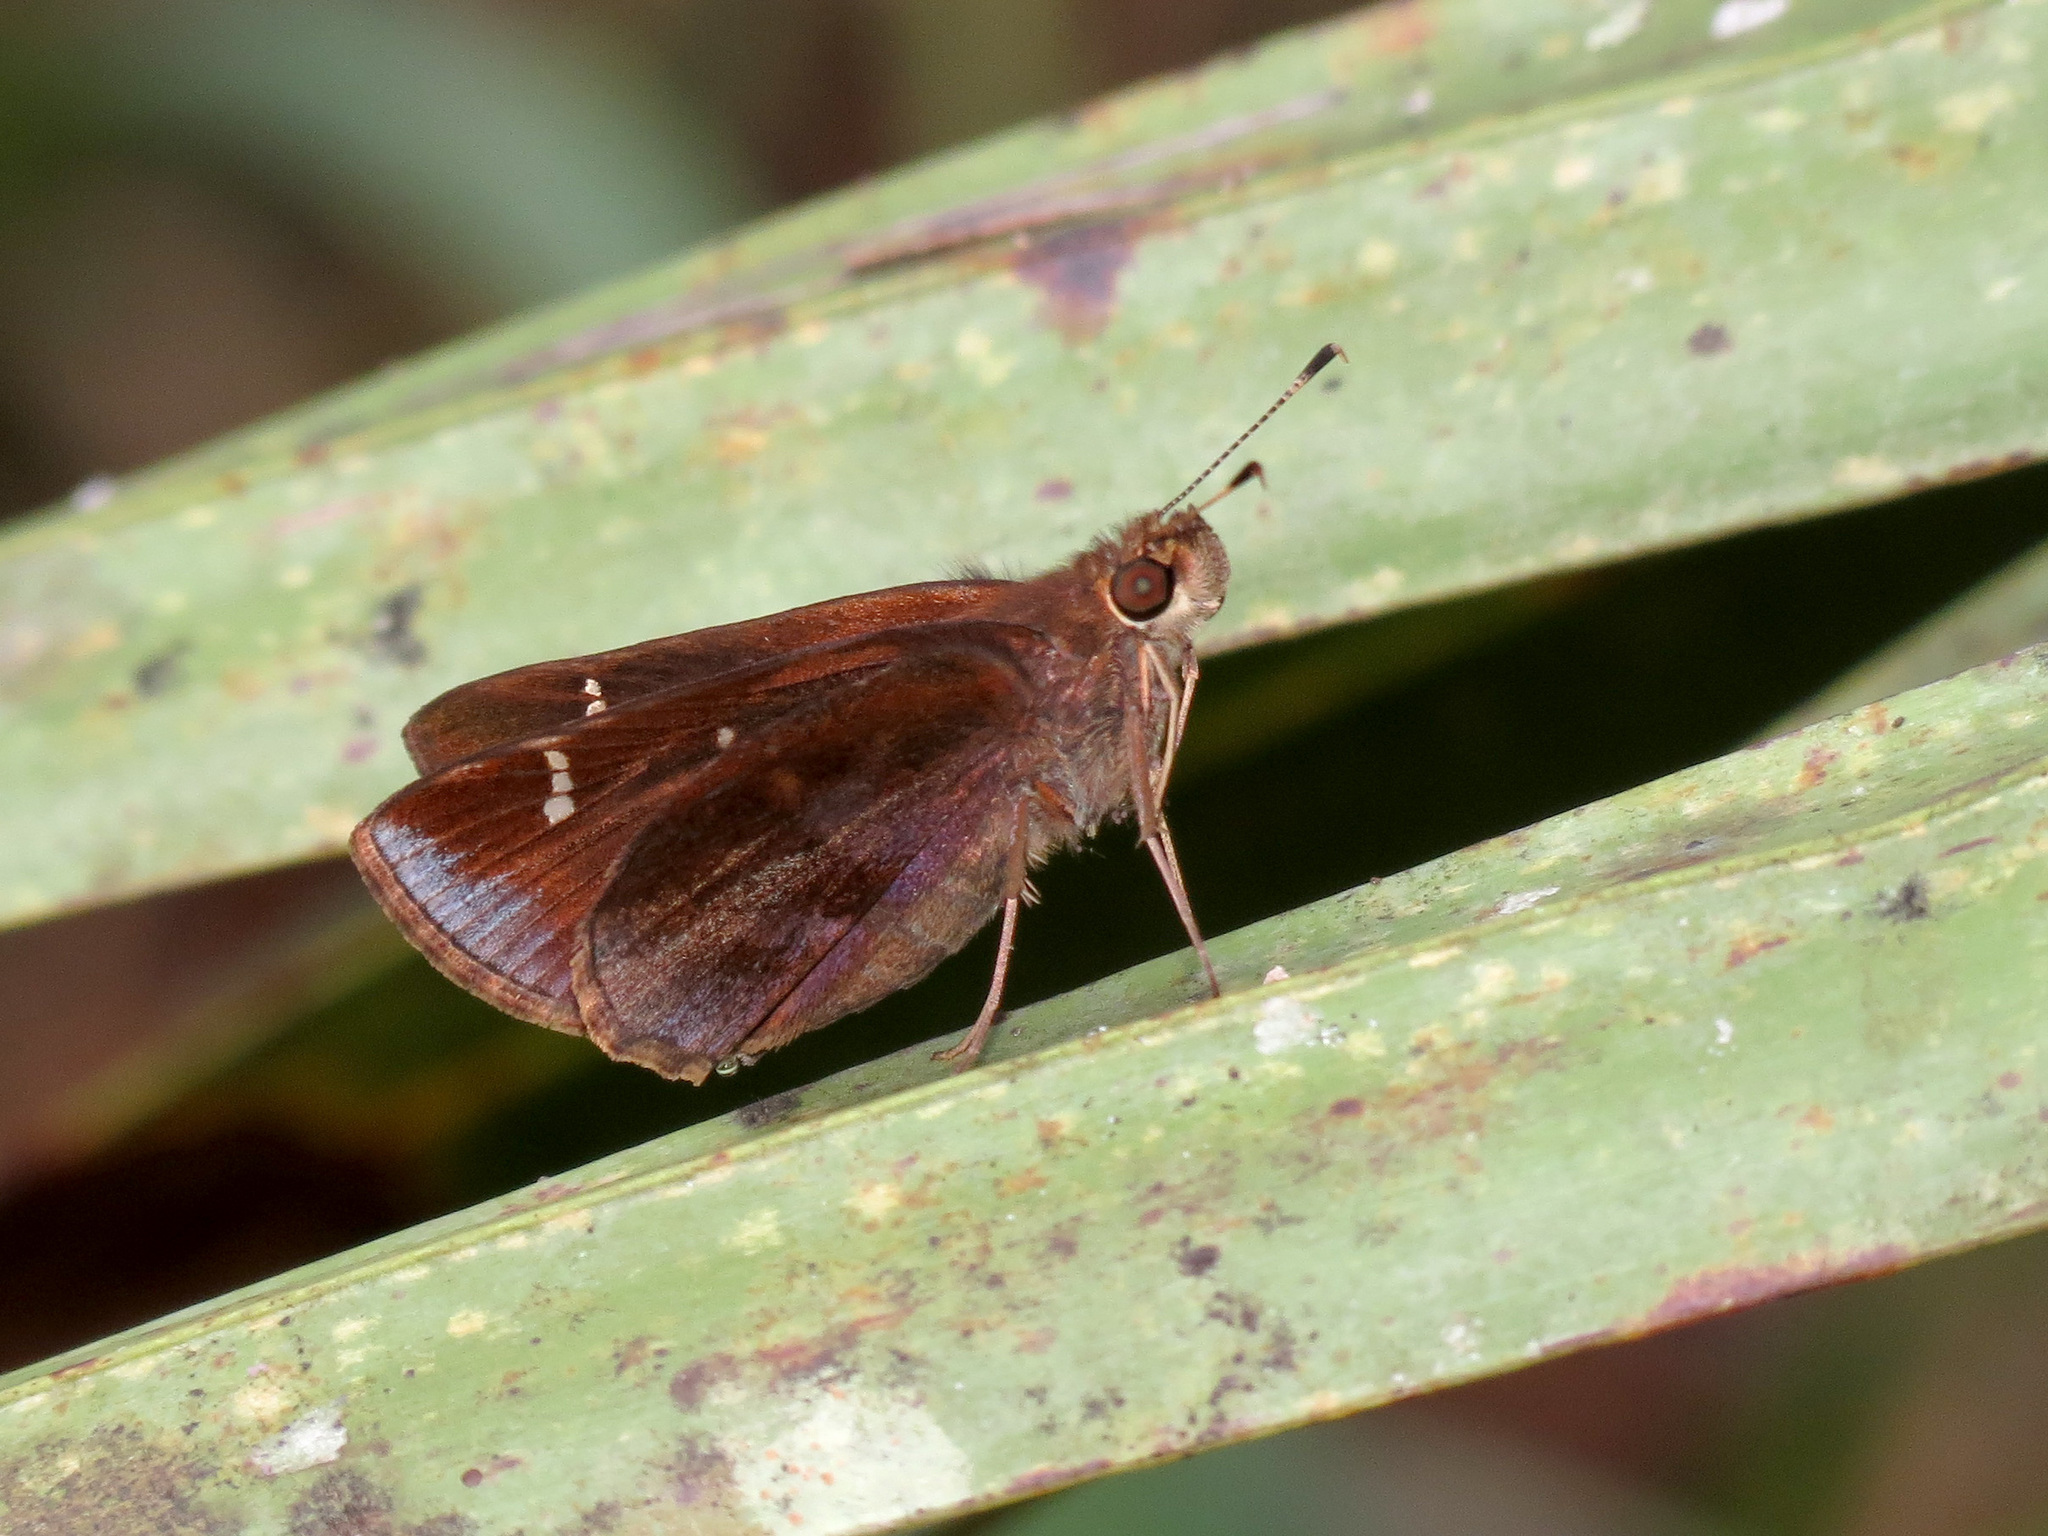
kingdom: Animalia
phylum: Arthropoda
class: Insecta
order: Lepidoptera
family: Hesperiidae
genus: Lerema
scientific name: Lerema accius
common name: Clouded skipper
